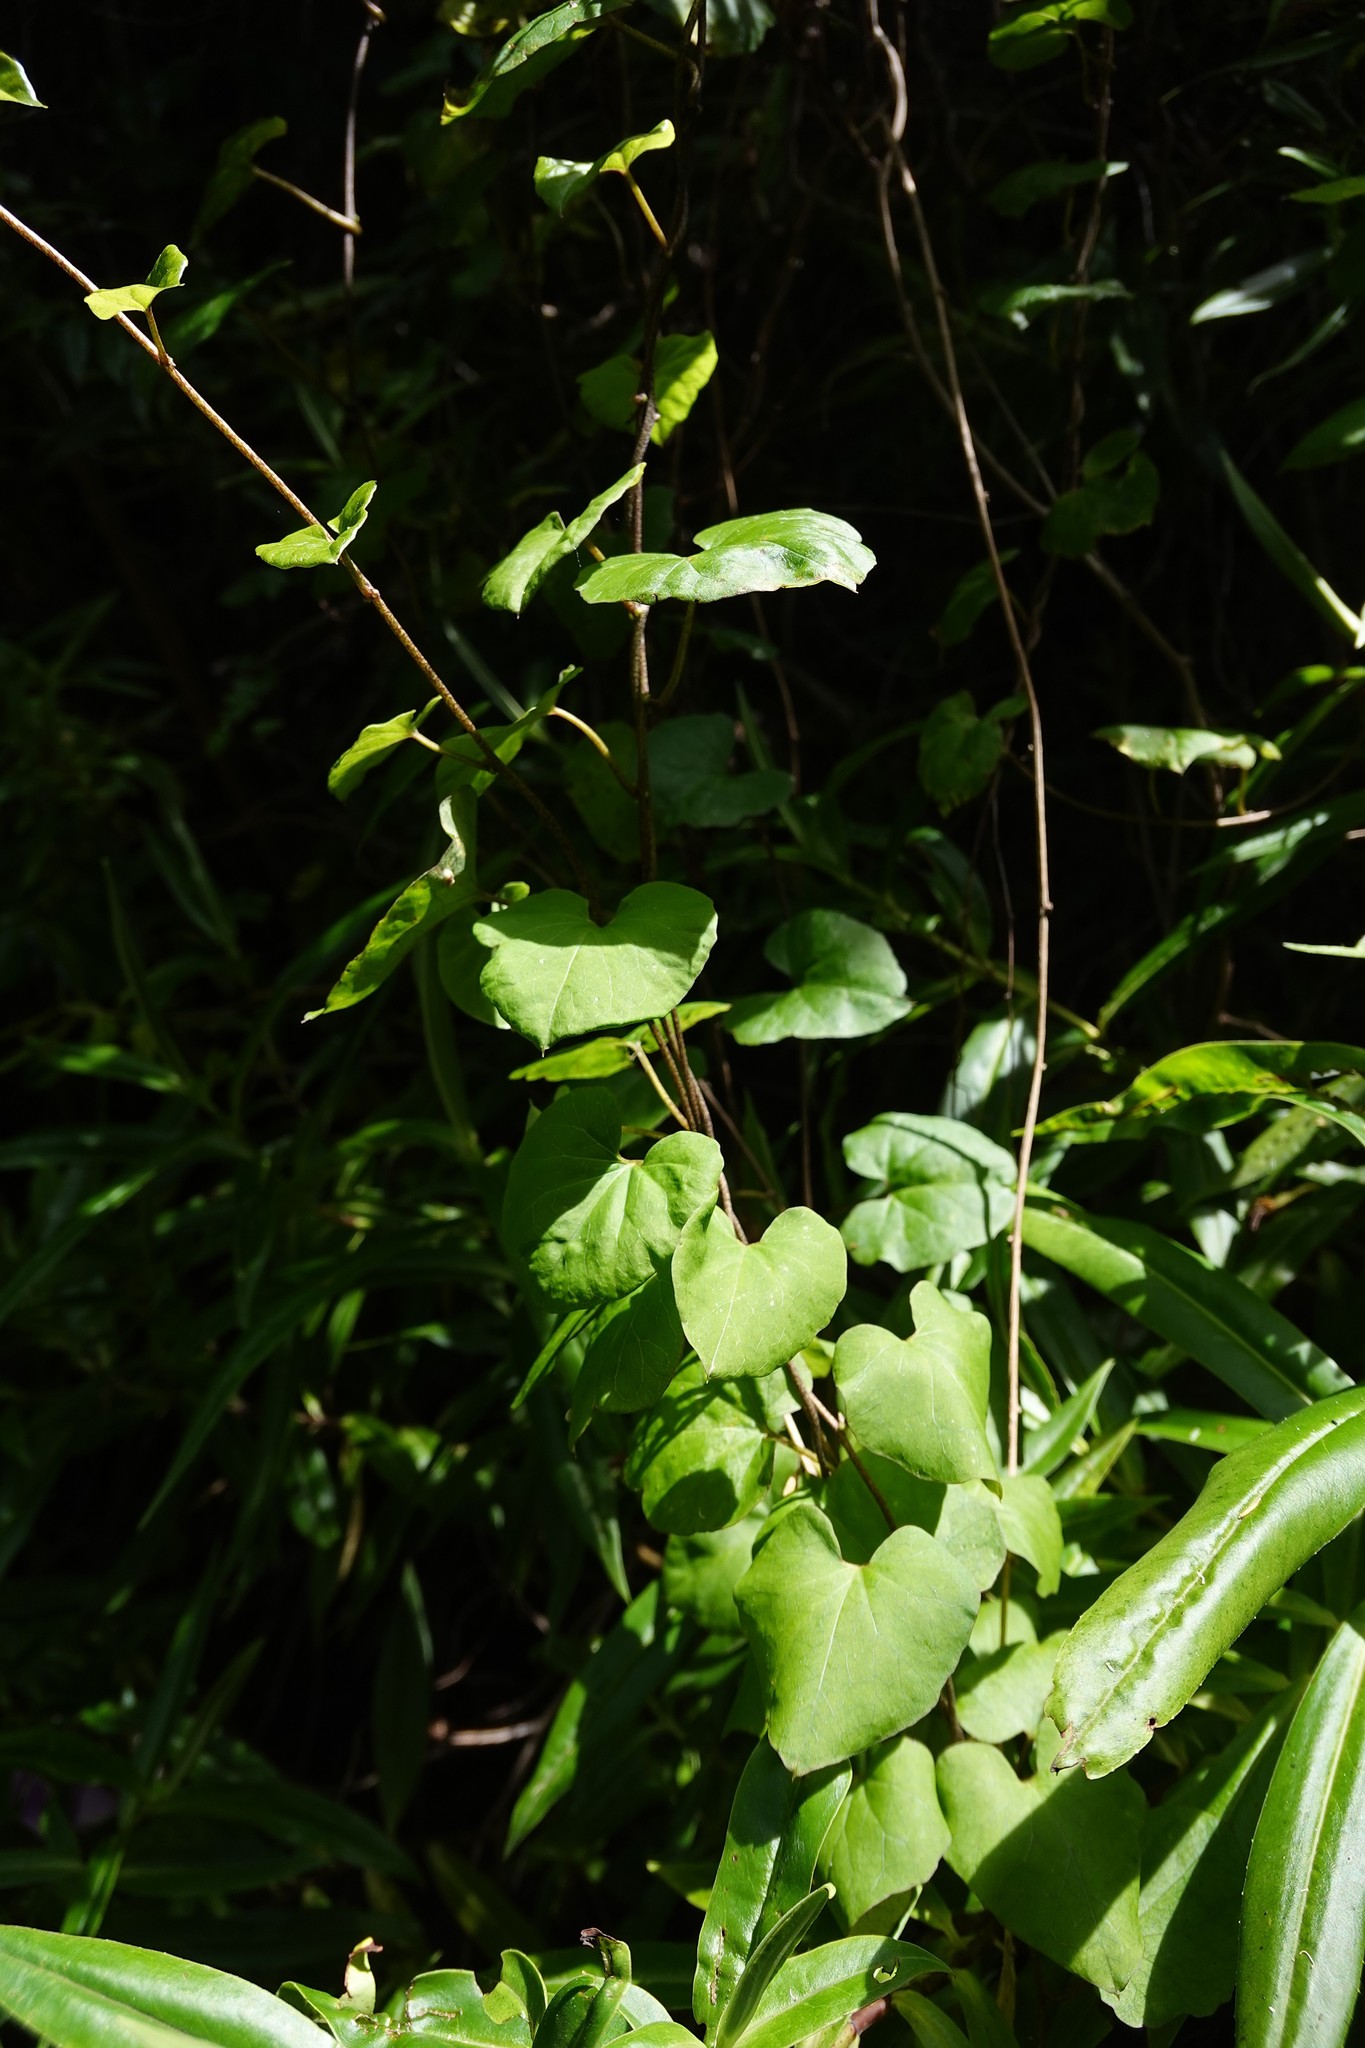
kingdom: Plantae
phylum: Tracheophyta
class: Magnoliopsida
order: Solanales
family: Convolvulaceae
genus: Calystegia
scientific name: Calystegia tuguriorum
